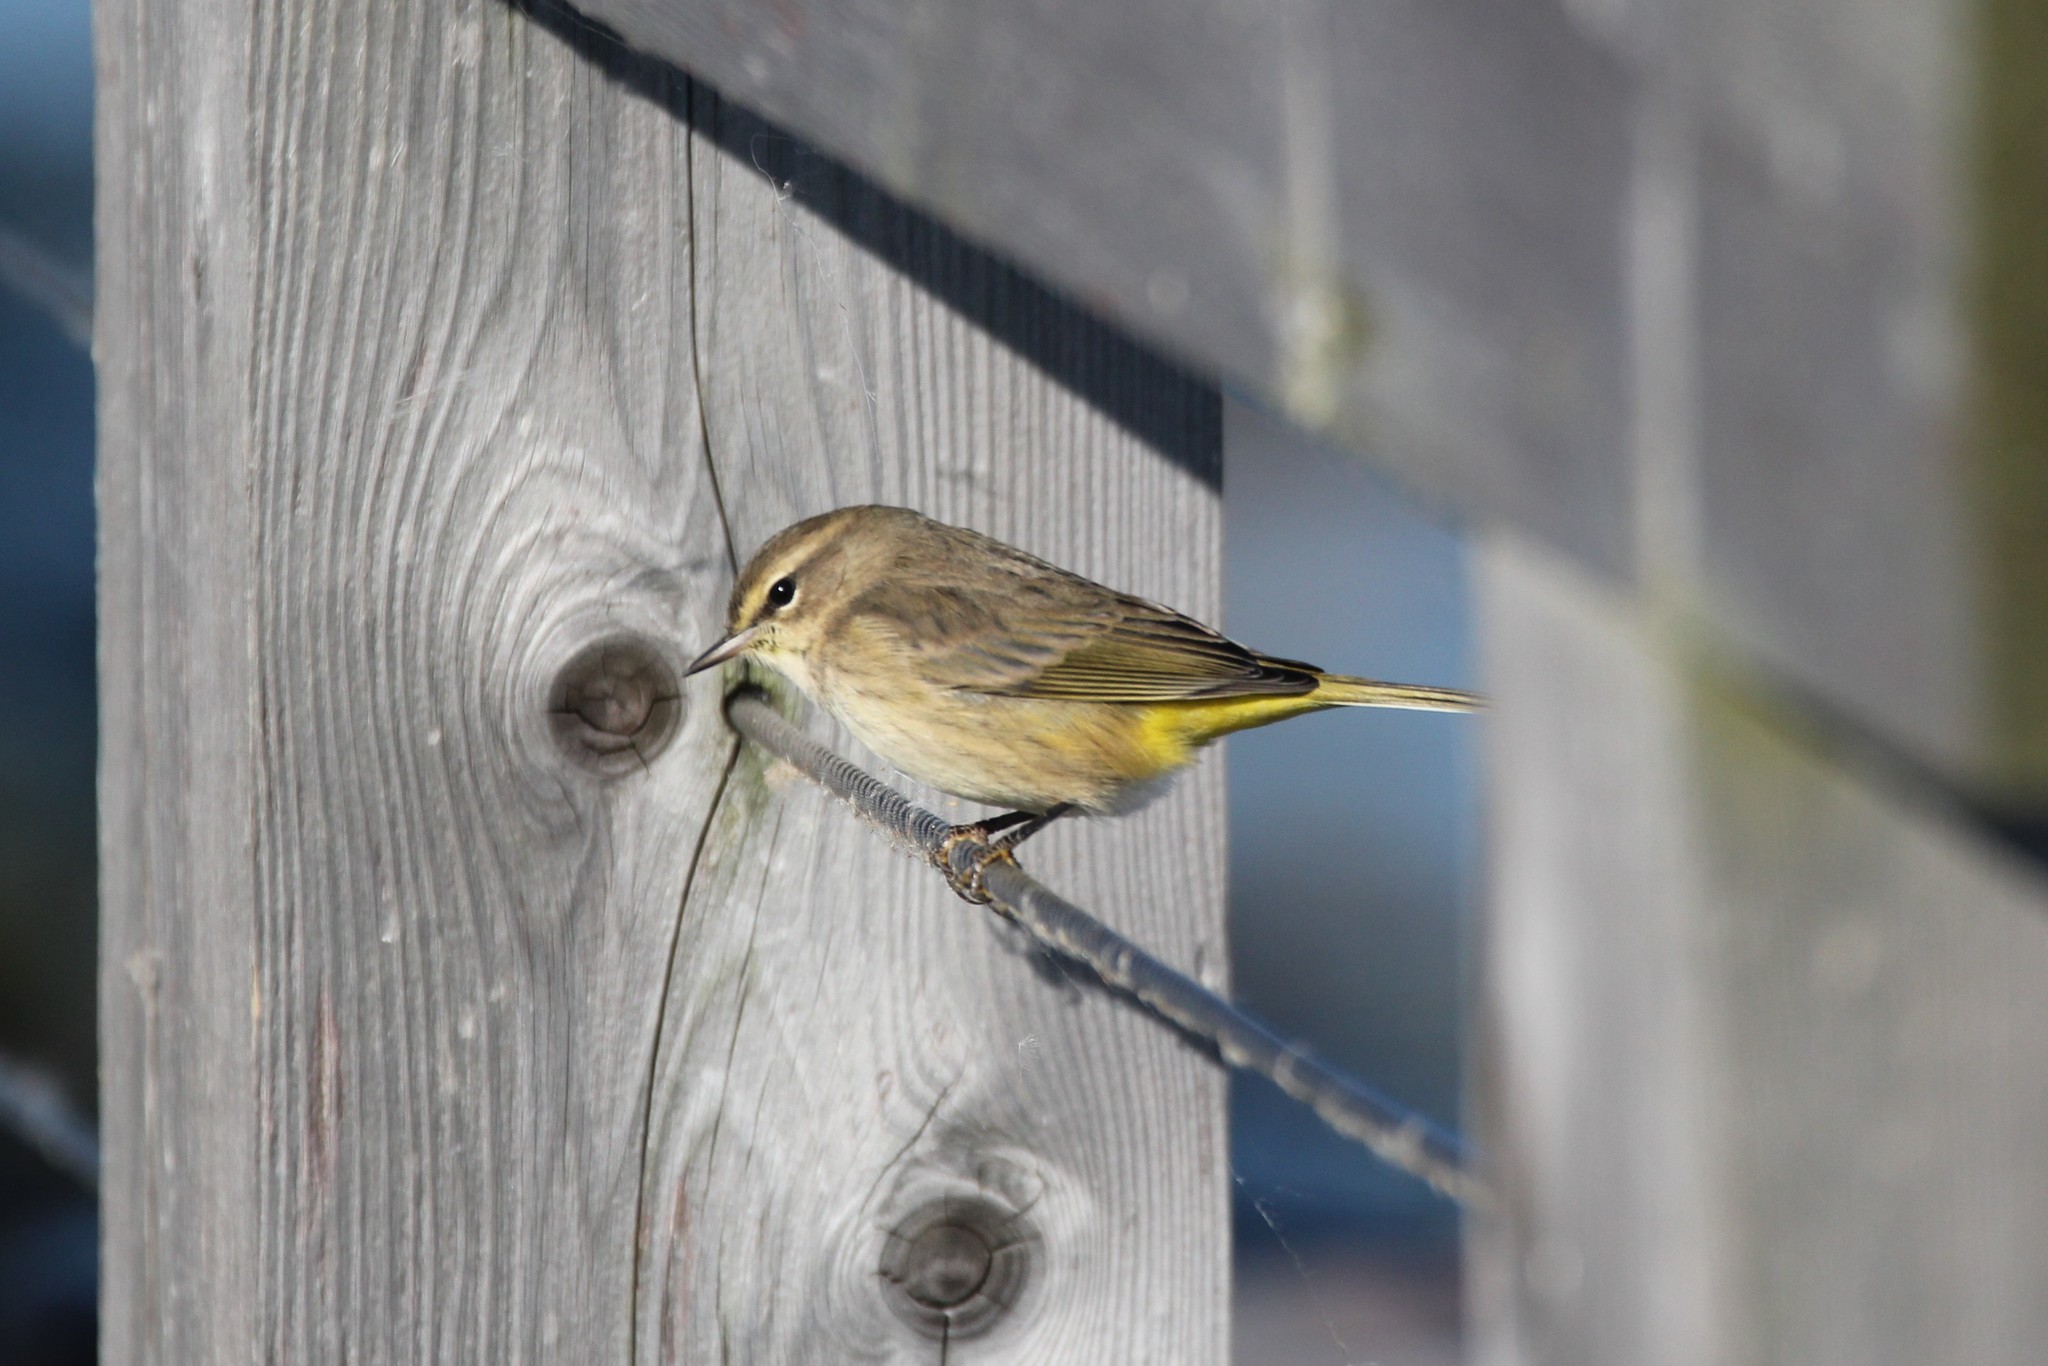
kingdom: Animalia
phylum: Chordata
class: Aves
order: Passeriformes
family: Parulidae
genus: Setophaga
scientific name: Setophaga palmarum
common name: Palm warbler
